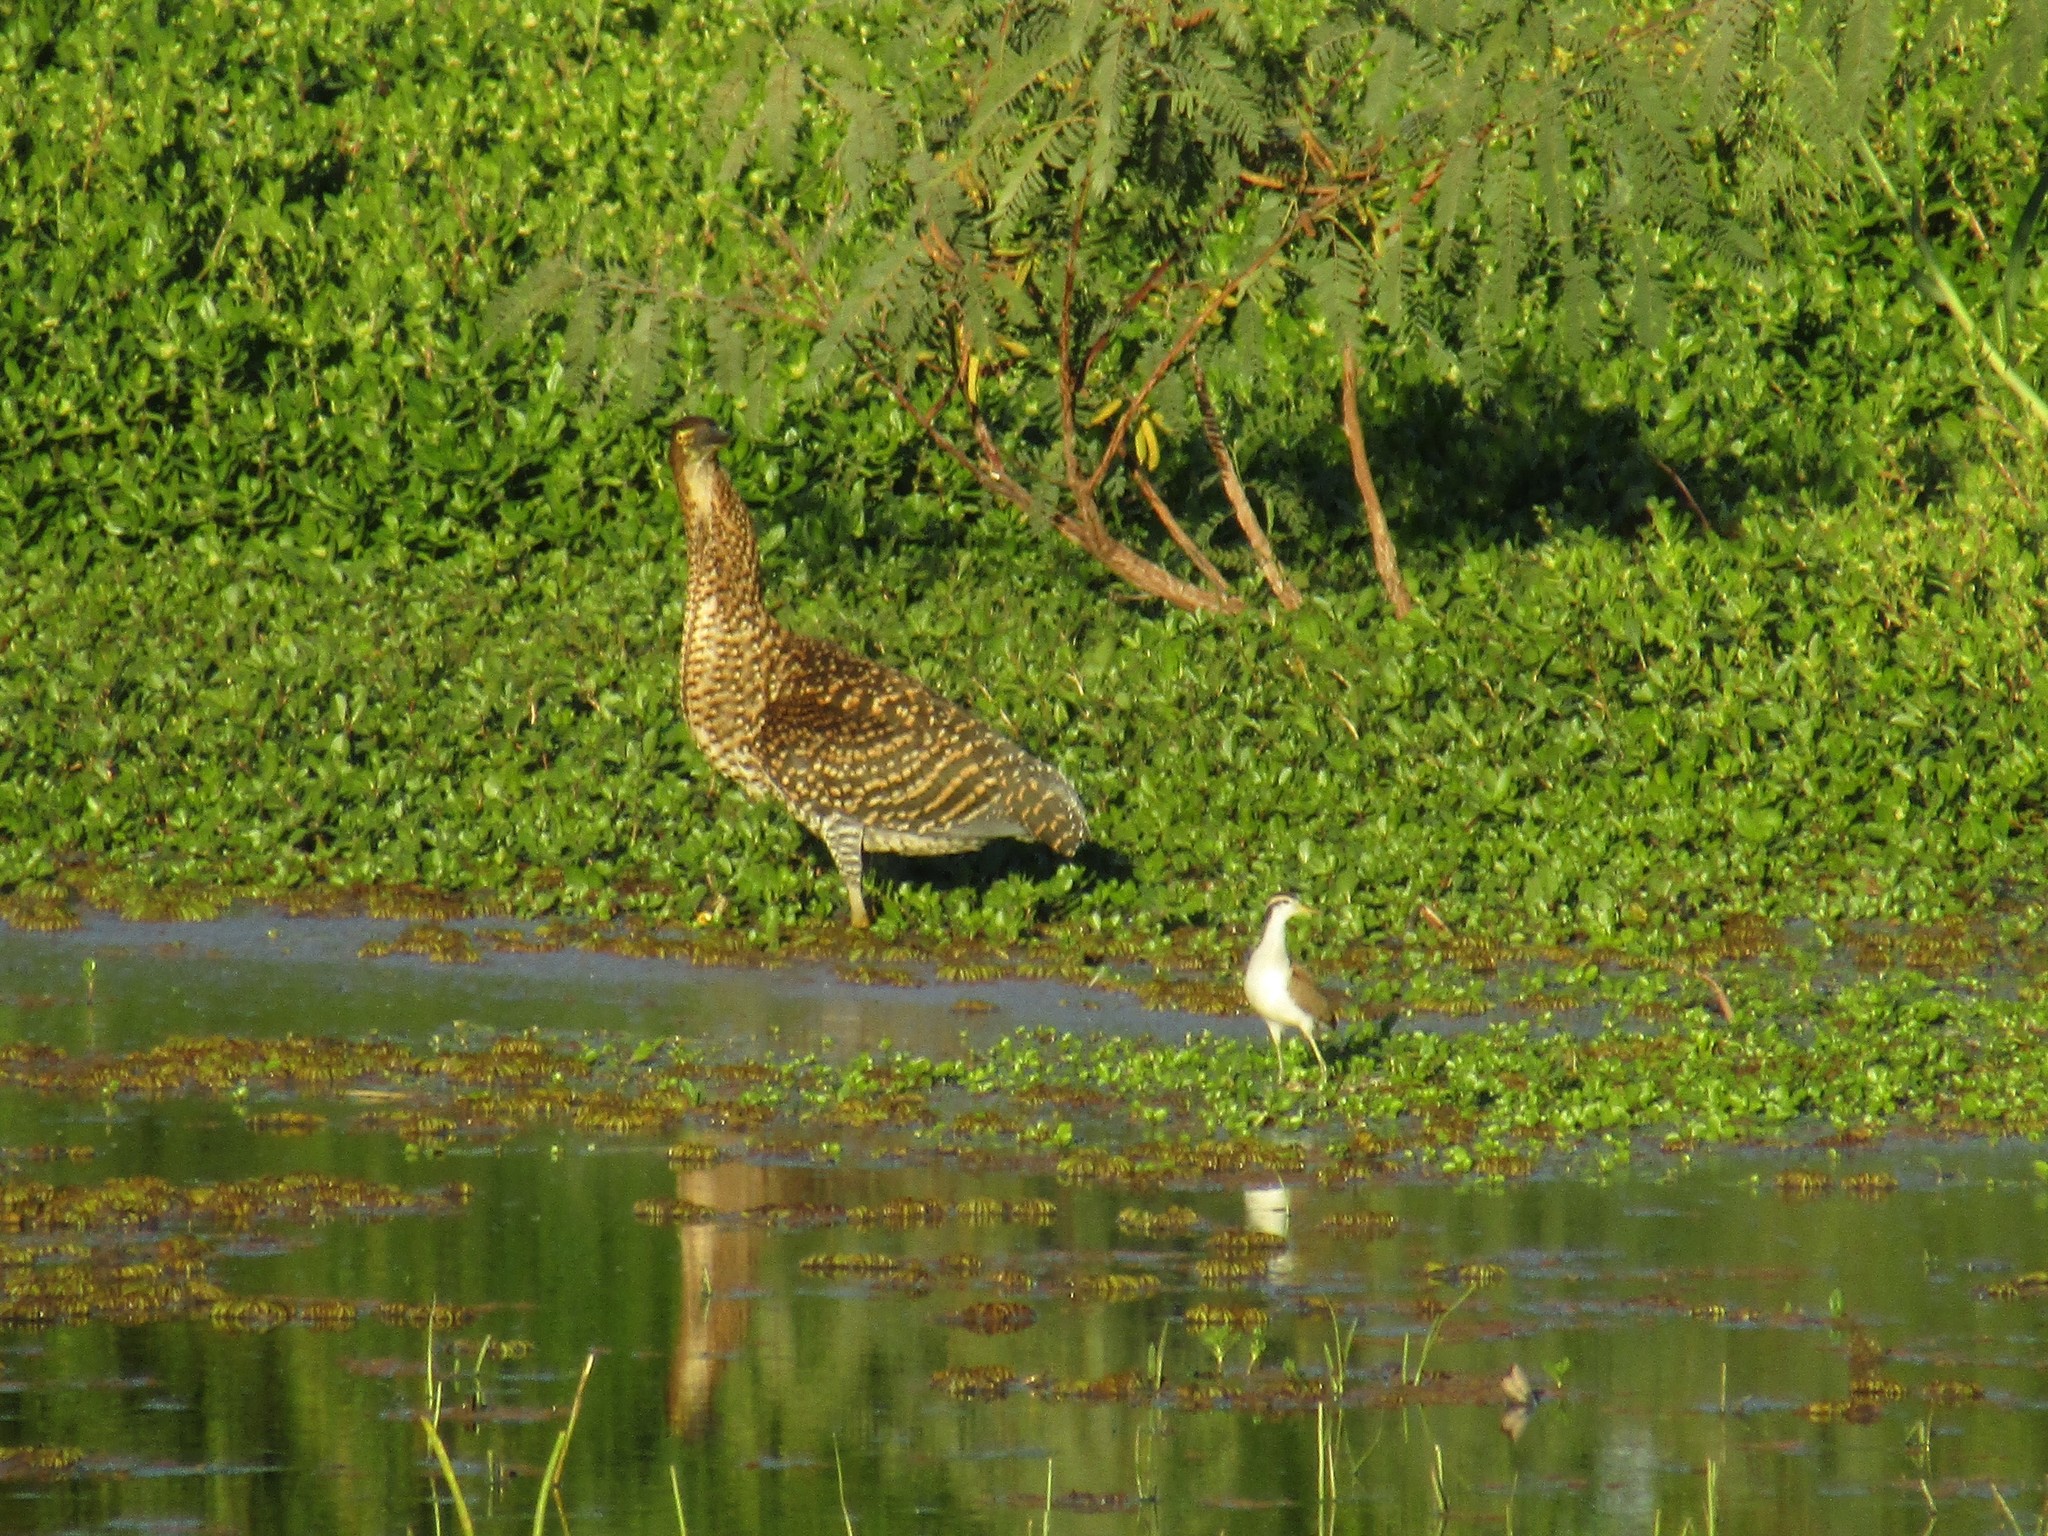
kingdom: Animalia
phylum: Chordata
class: Aves
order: Pelecaniformes
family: Ardeidae
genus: Tigrisoma
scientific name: Tigrisoma lineatum
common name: Rufescent tiger-heron
